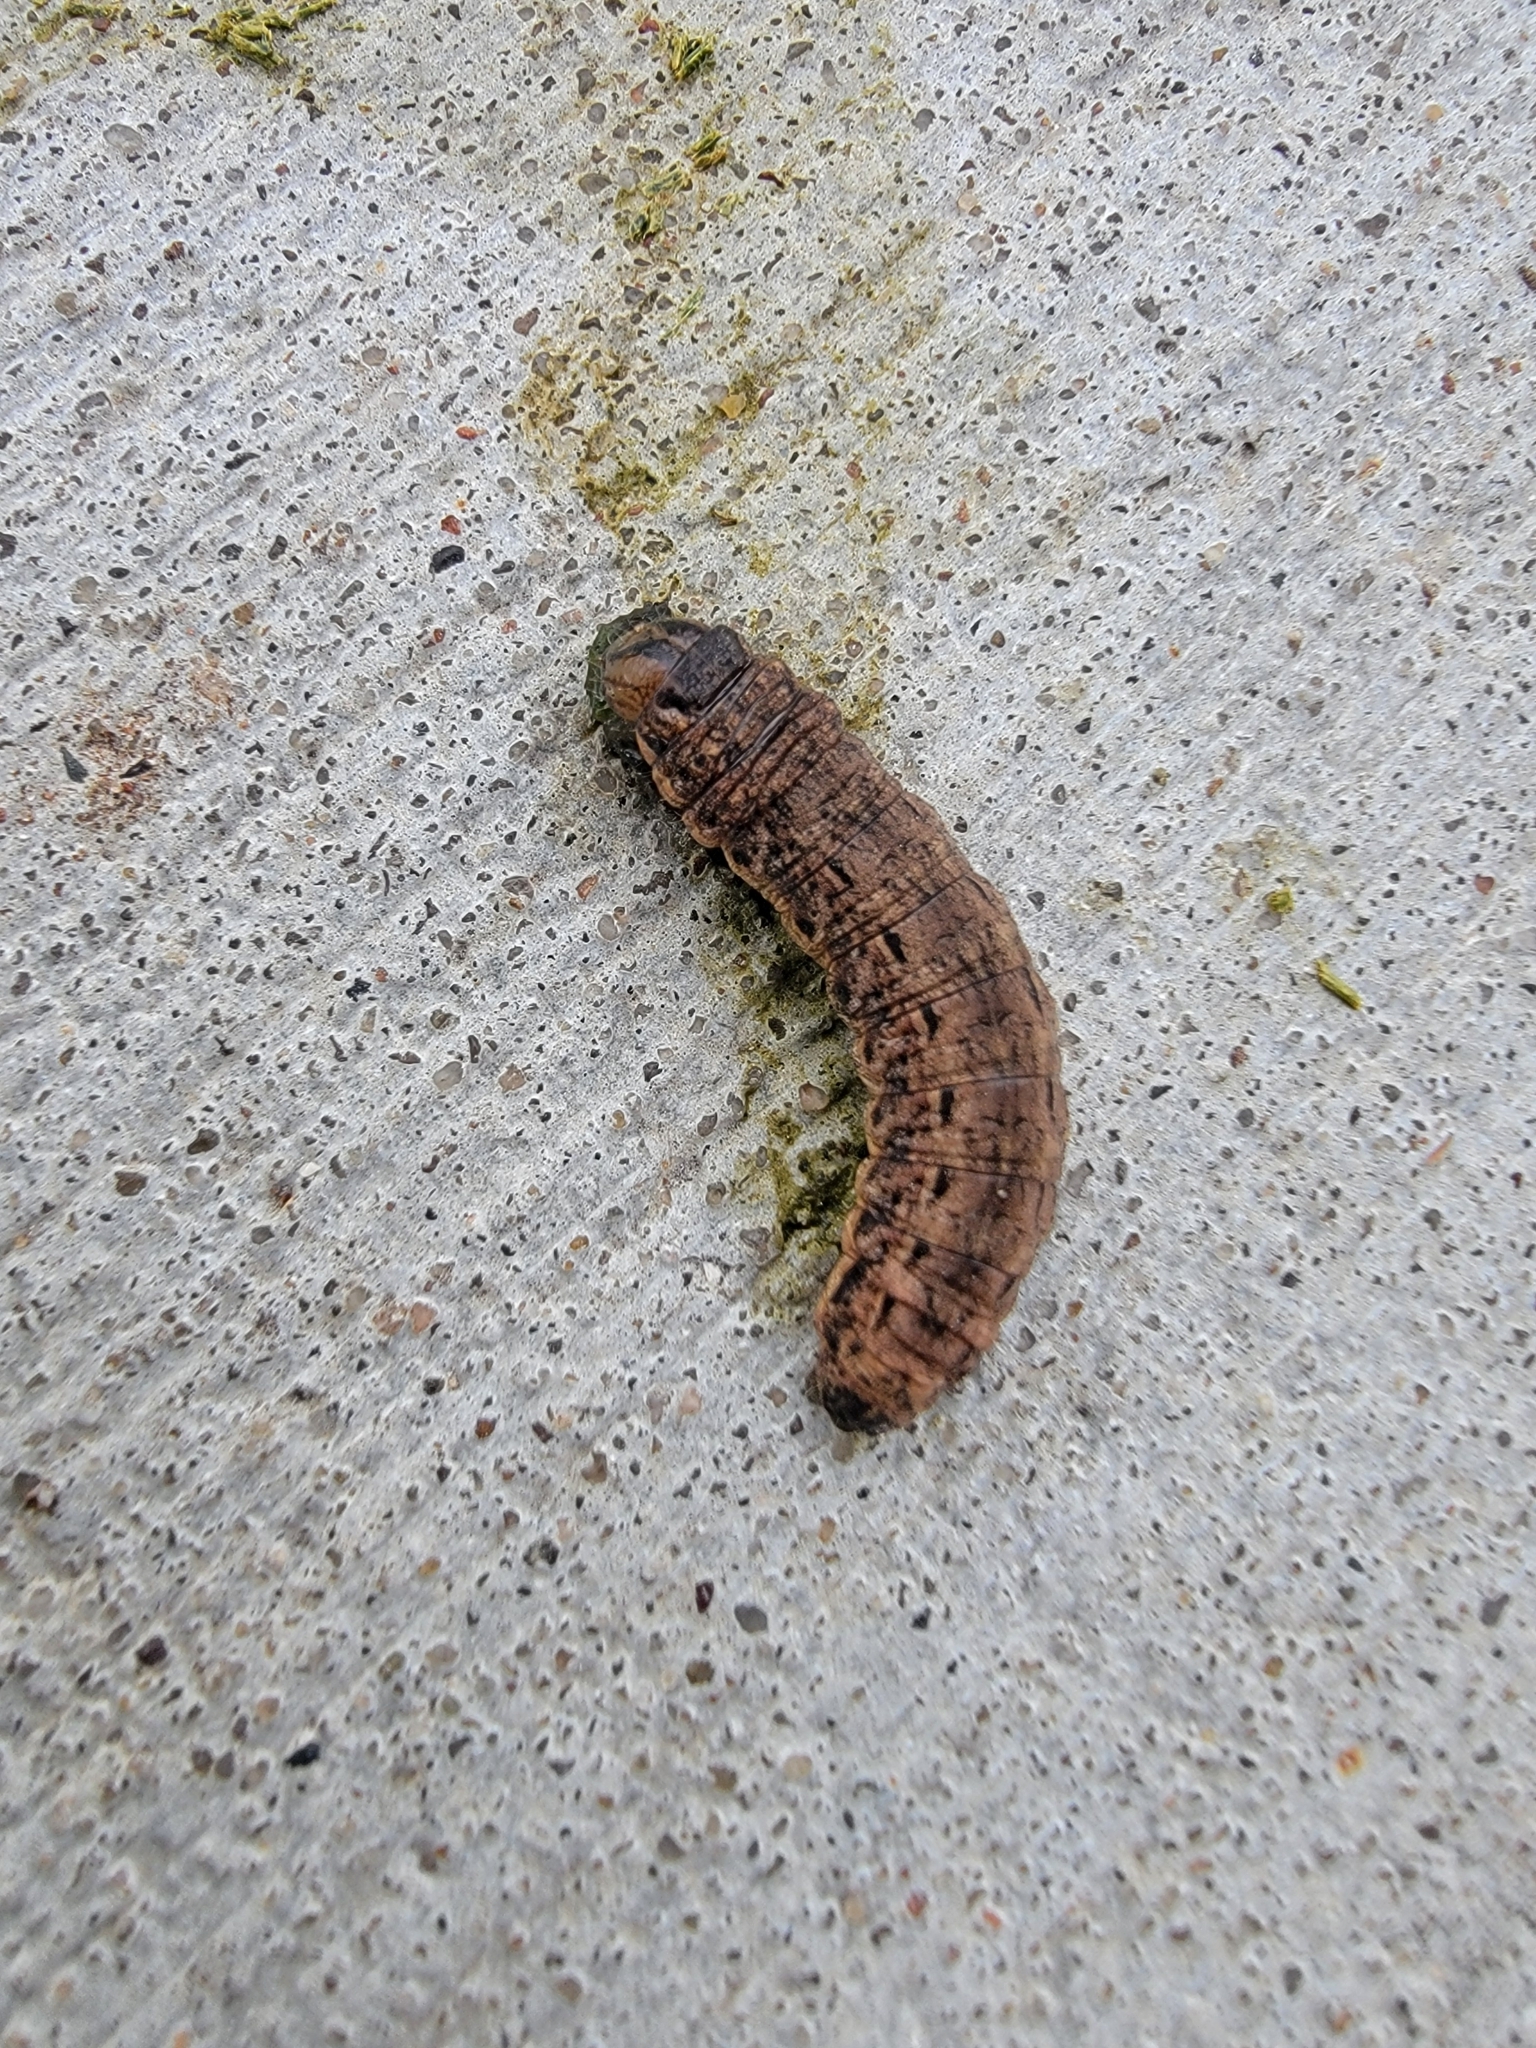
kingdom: Animalia
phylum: Arthropoda
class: Insecta
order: Lepidoptera
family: Noctuidae
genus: Noctua
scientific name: Noctua pronuba
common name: Large yellow underwing
